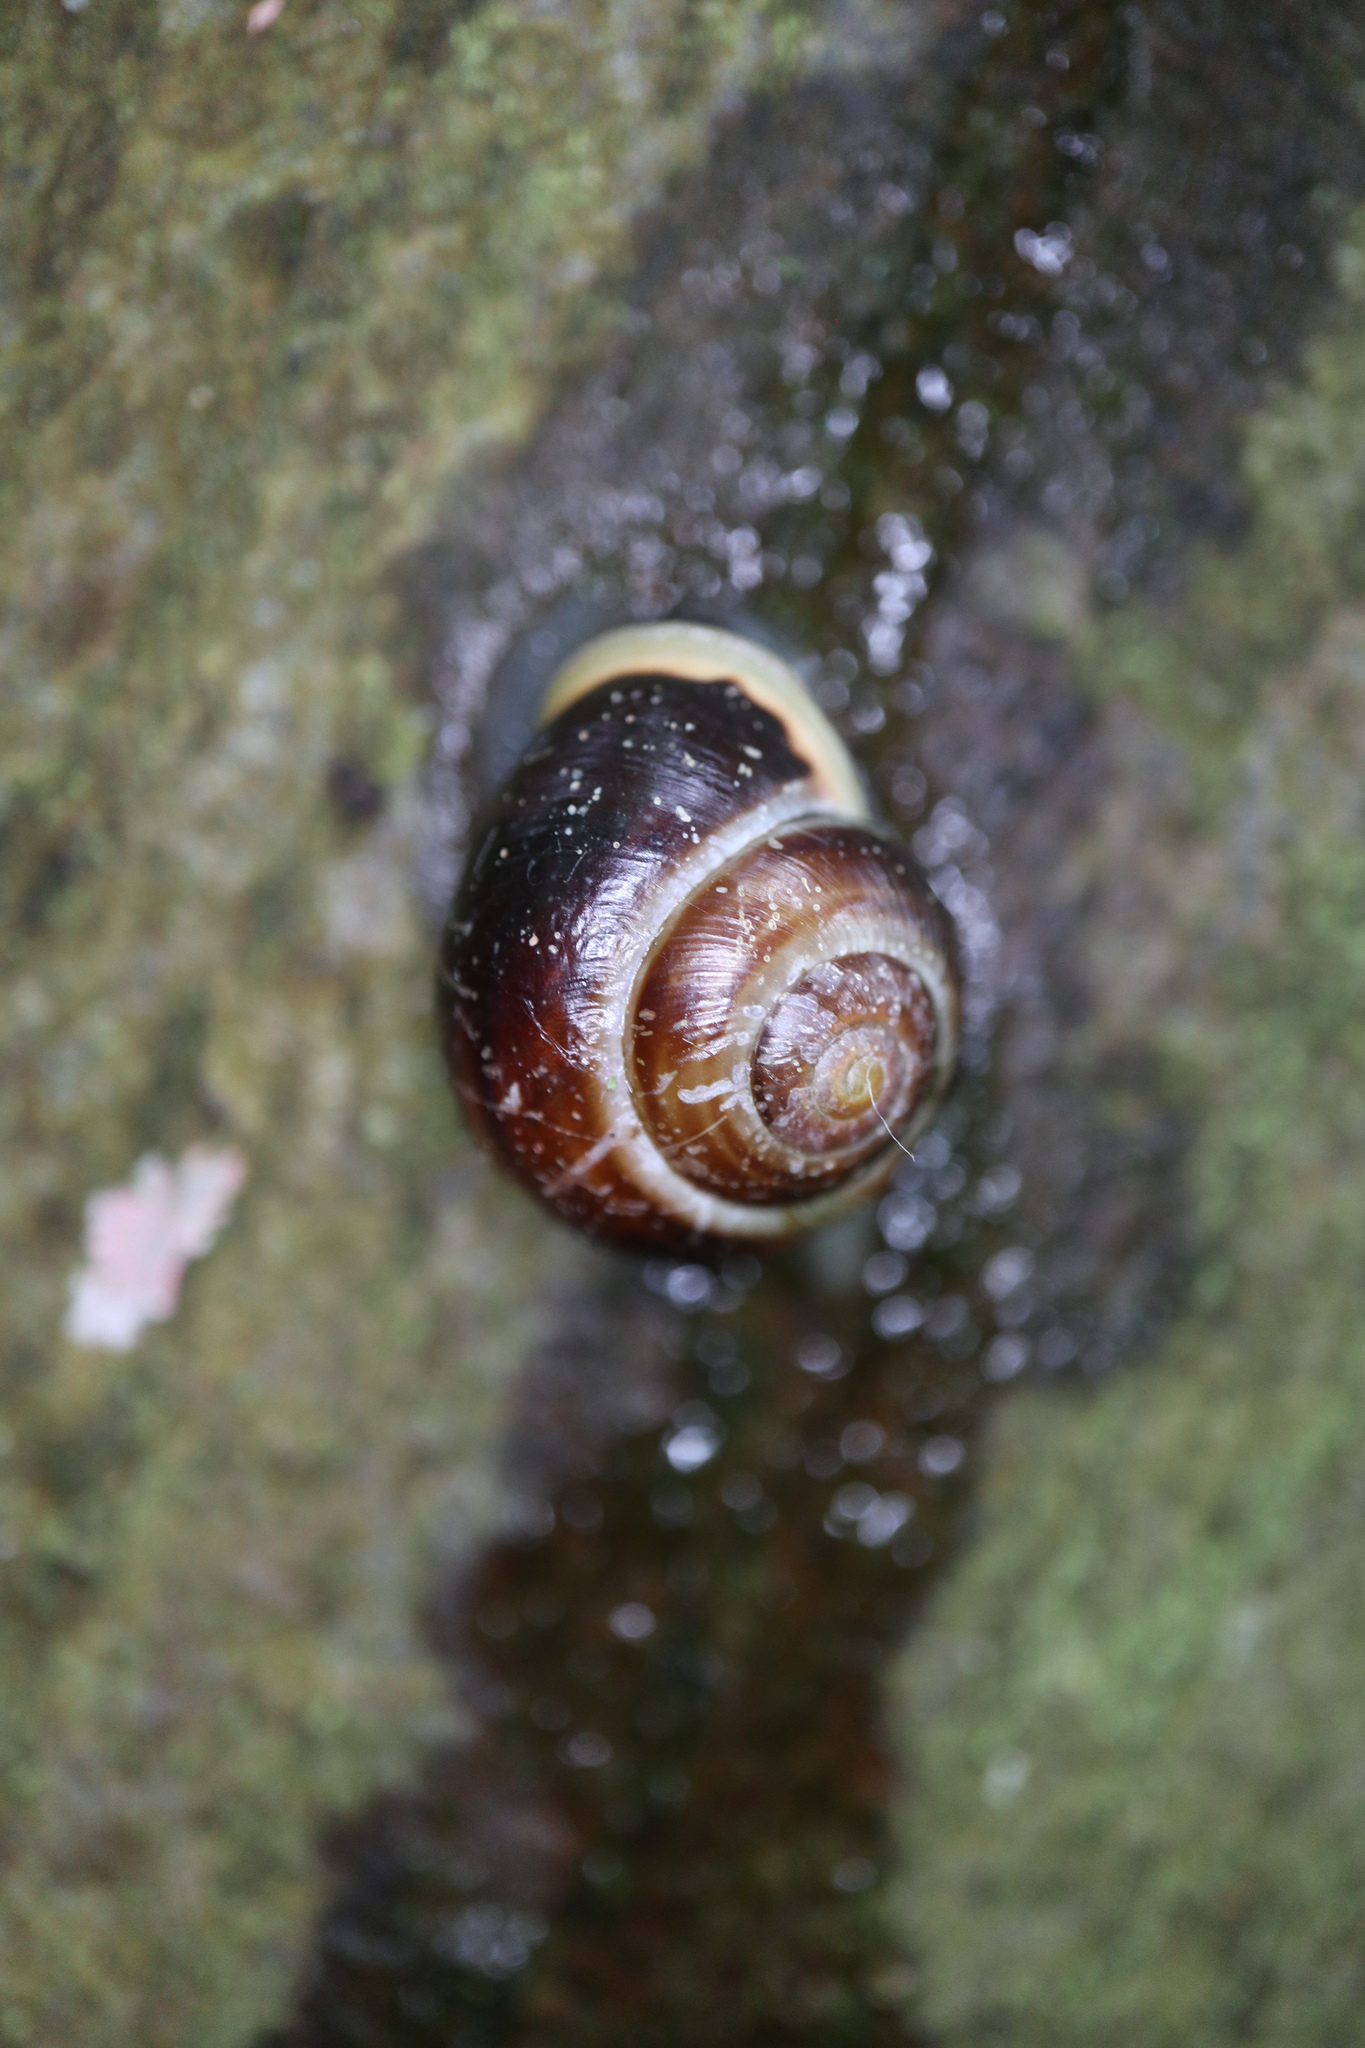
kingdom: Animalia
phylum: Mollusca
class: Gastropoda
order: Stylommatophora
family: Helicidae
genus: Cepaea
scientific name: Cepaea hortensis
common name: White-lip gardensnail
